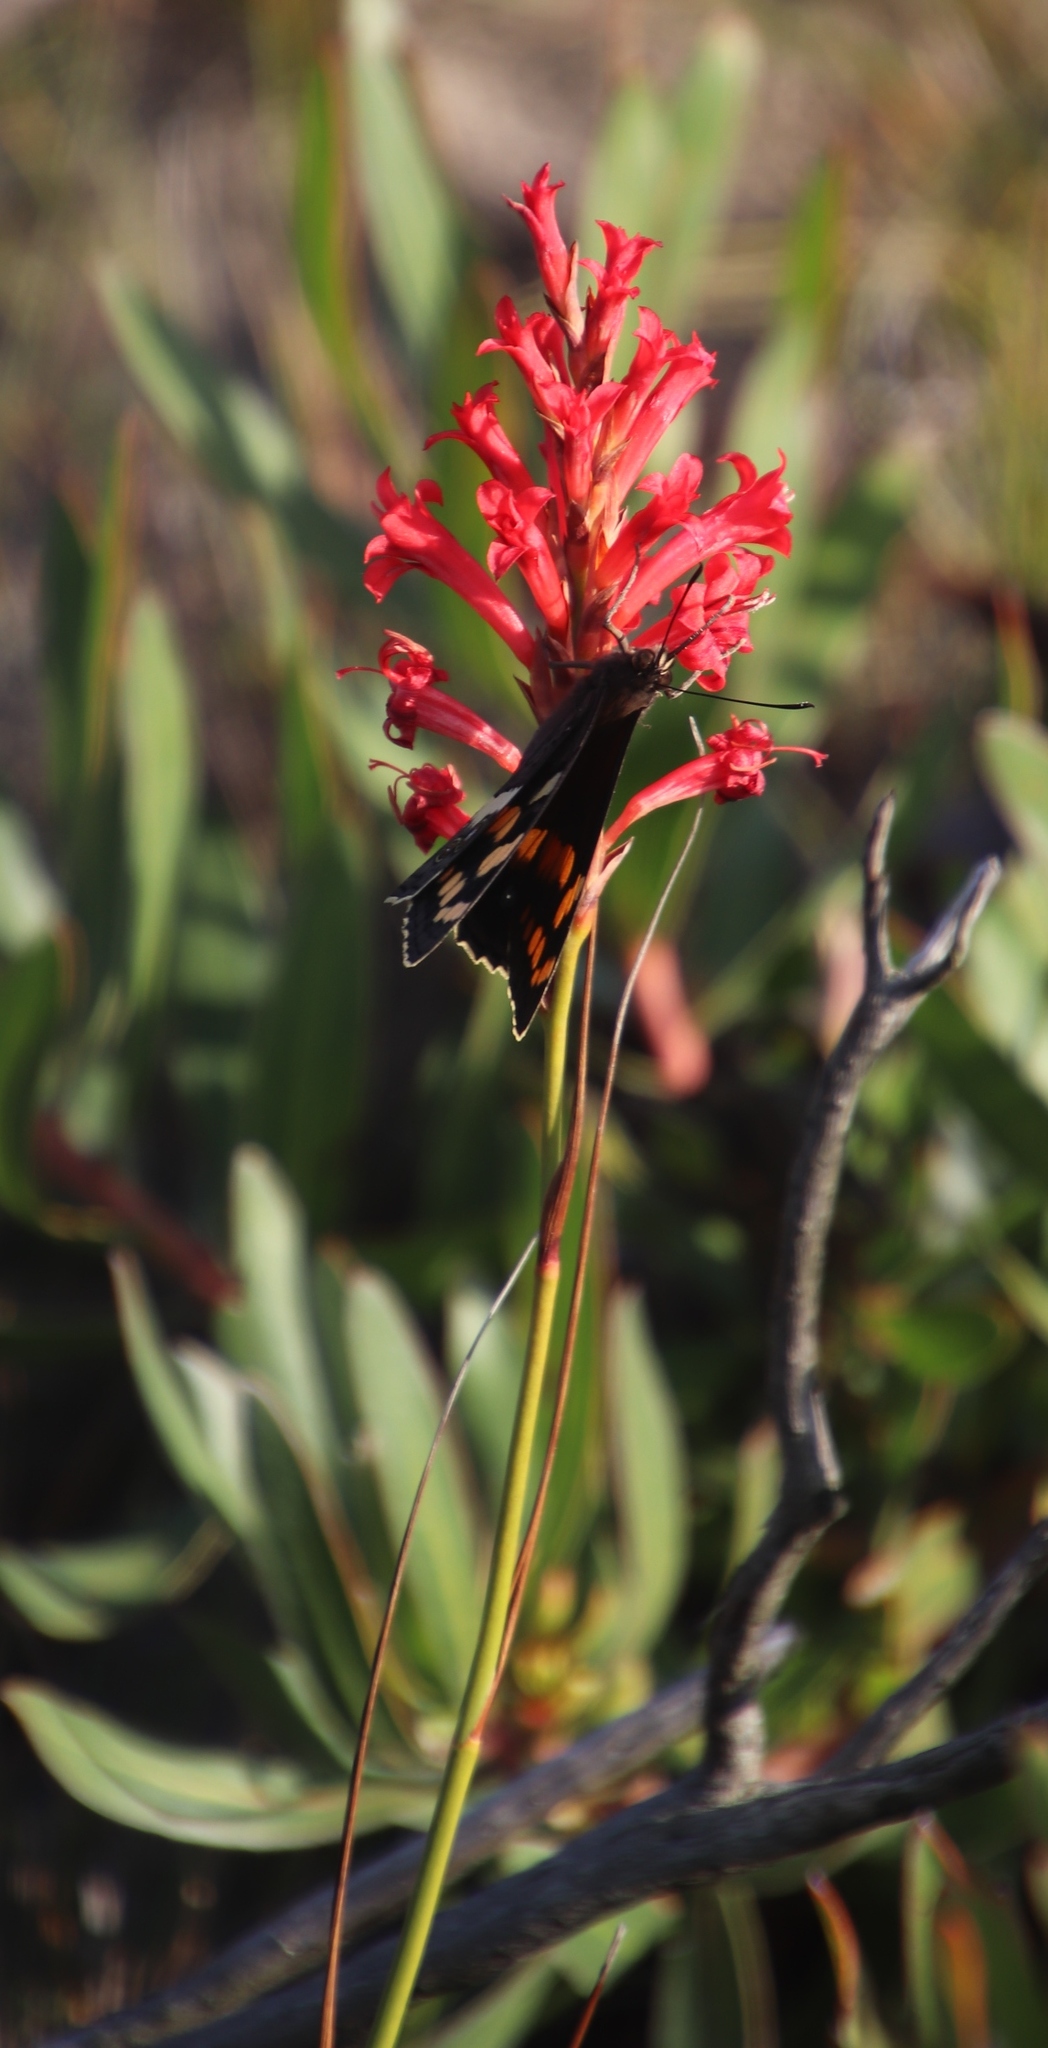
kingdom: Plantae
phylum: Tracheophyta
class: Liliopsida
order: Asparagales
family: Iridaceae
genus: Tritoniopsis
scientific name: Tritoniopsis triticea
